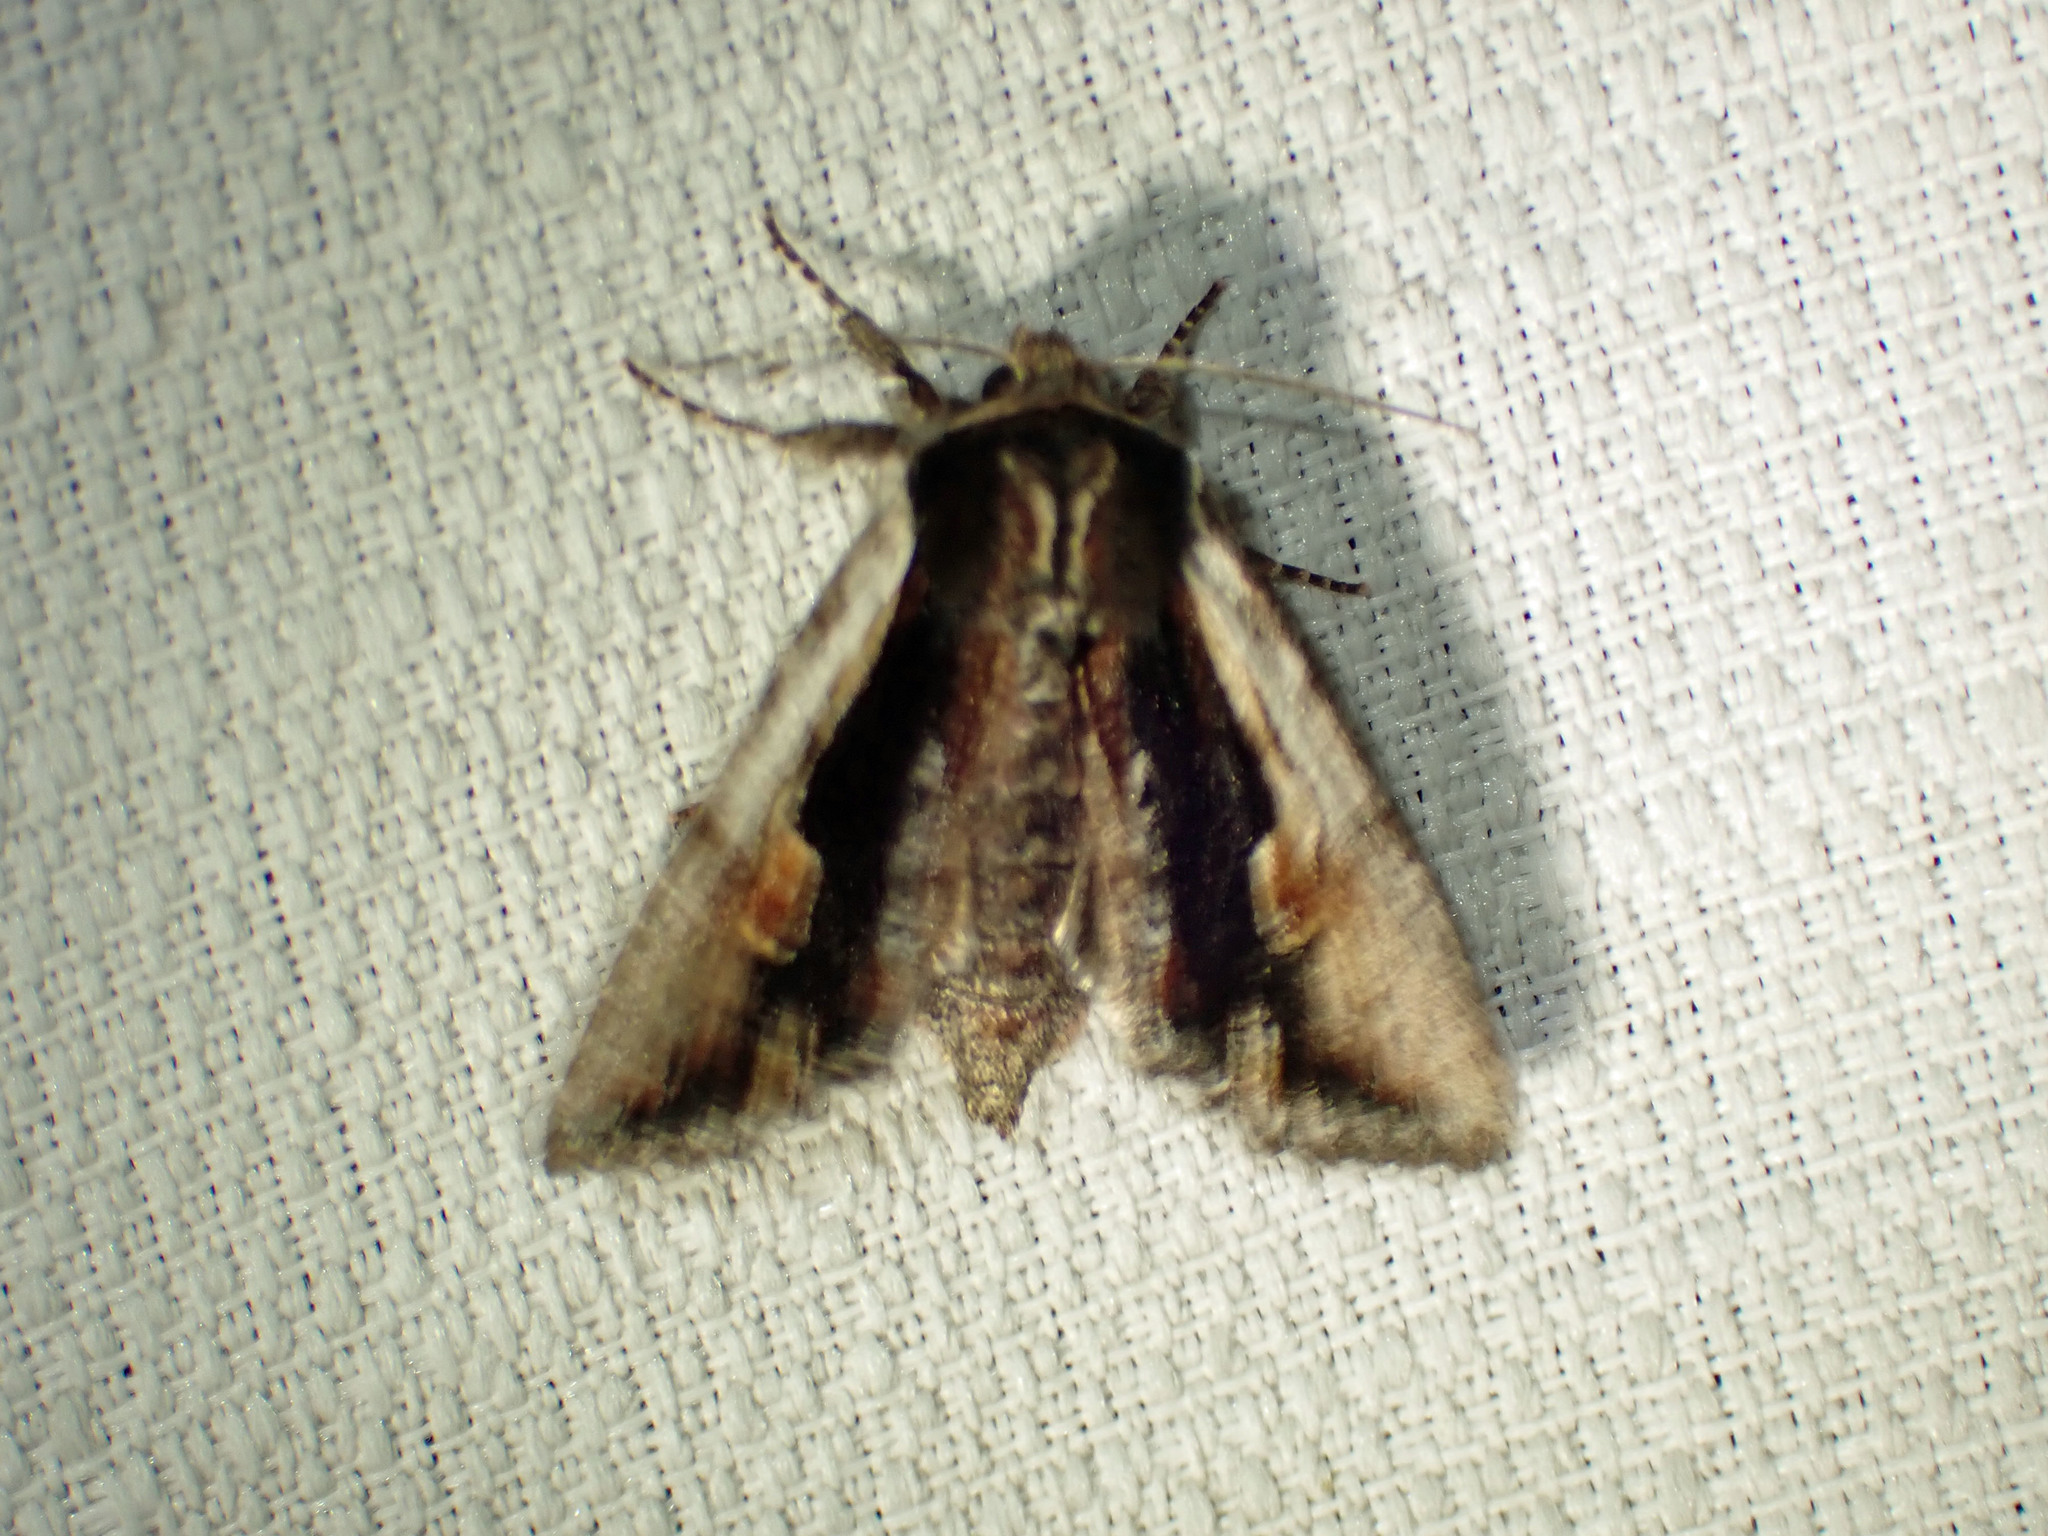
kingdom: Animalia
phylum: Arthropoda
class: Insecta
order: Lepidoptera
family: Noctuidae
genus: Achatia
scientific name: Achatia evicta
